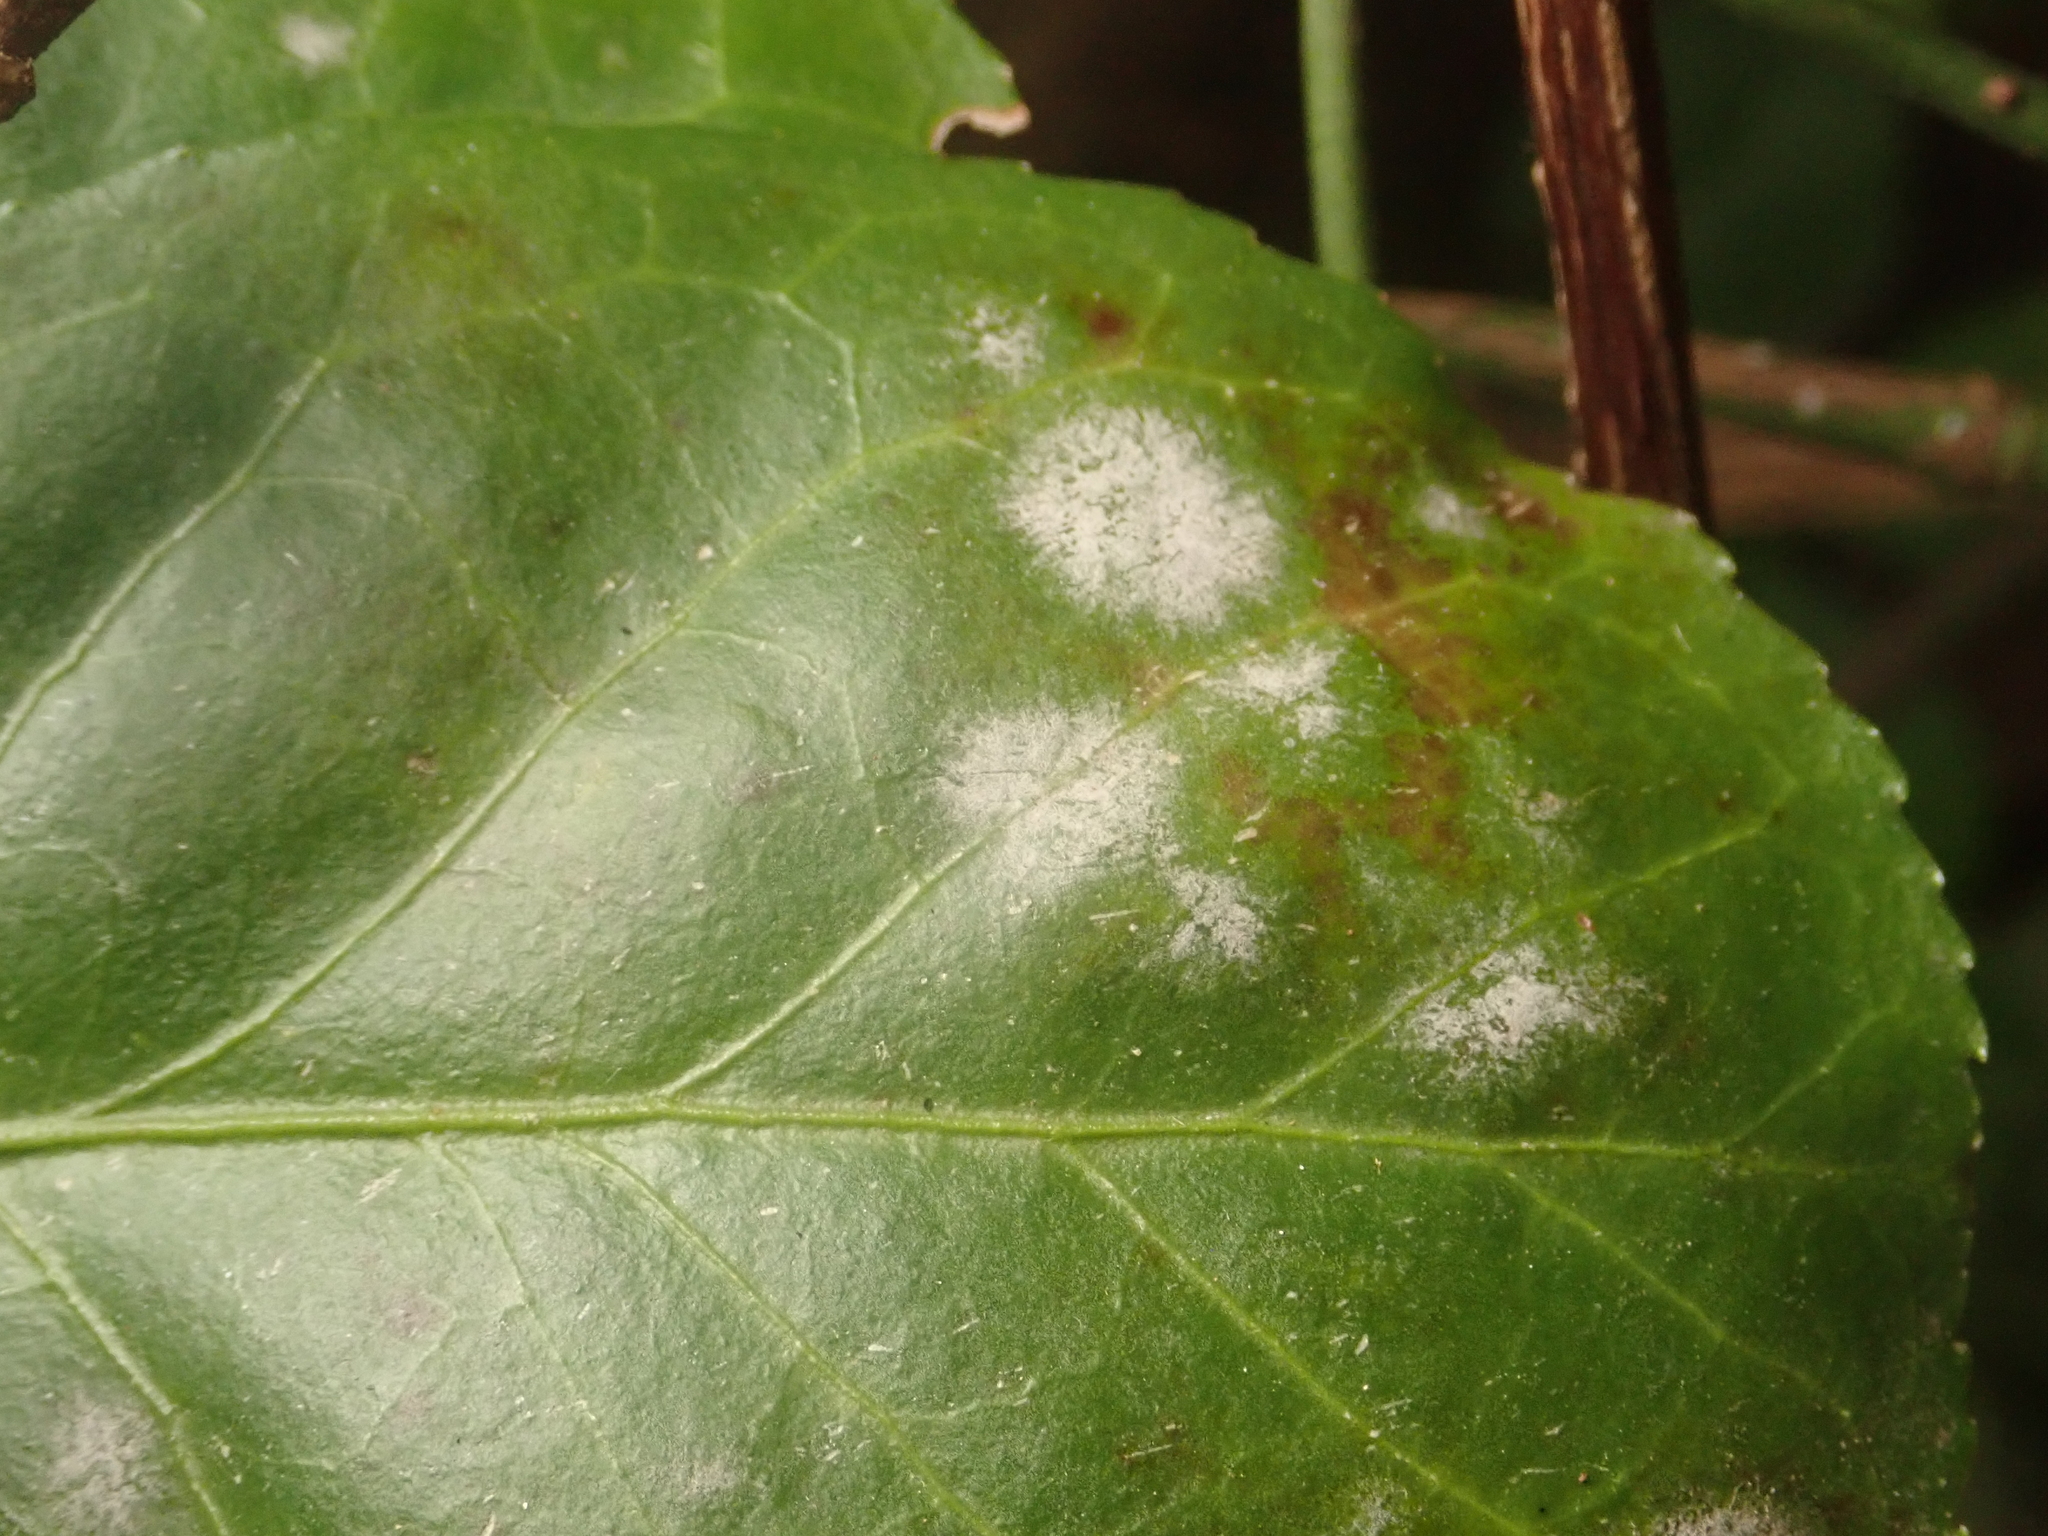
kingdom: Fungi
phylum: Ascomycota
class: Leotiomycetes
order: Helotiales
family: Erysiphaceae
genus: Erysiphe
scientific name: Erysiphe euonymicola
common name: Spindletree mildew
